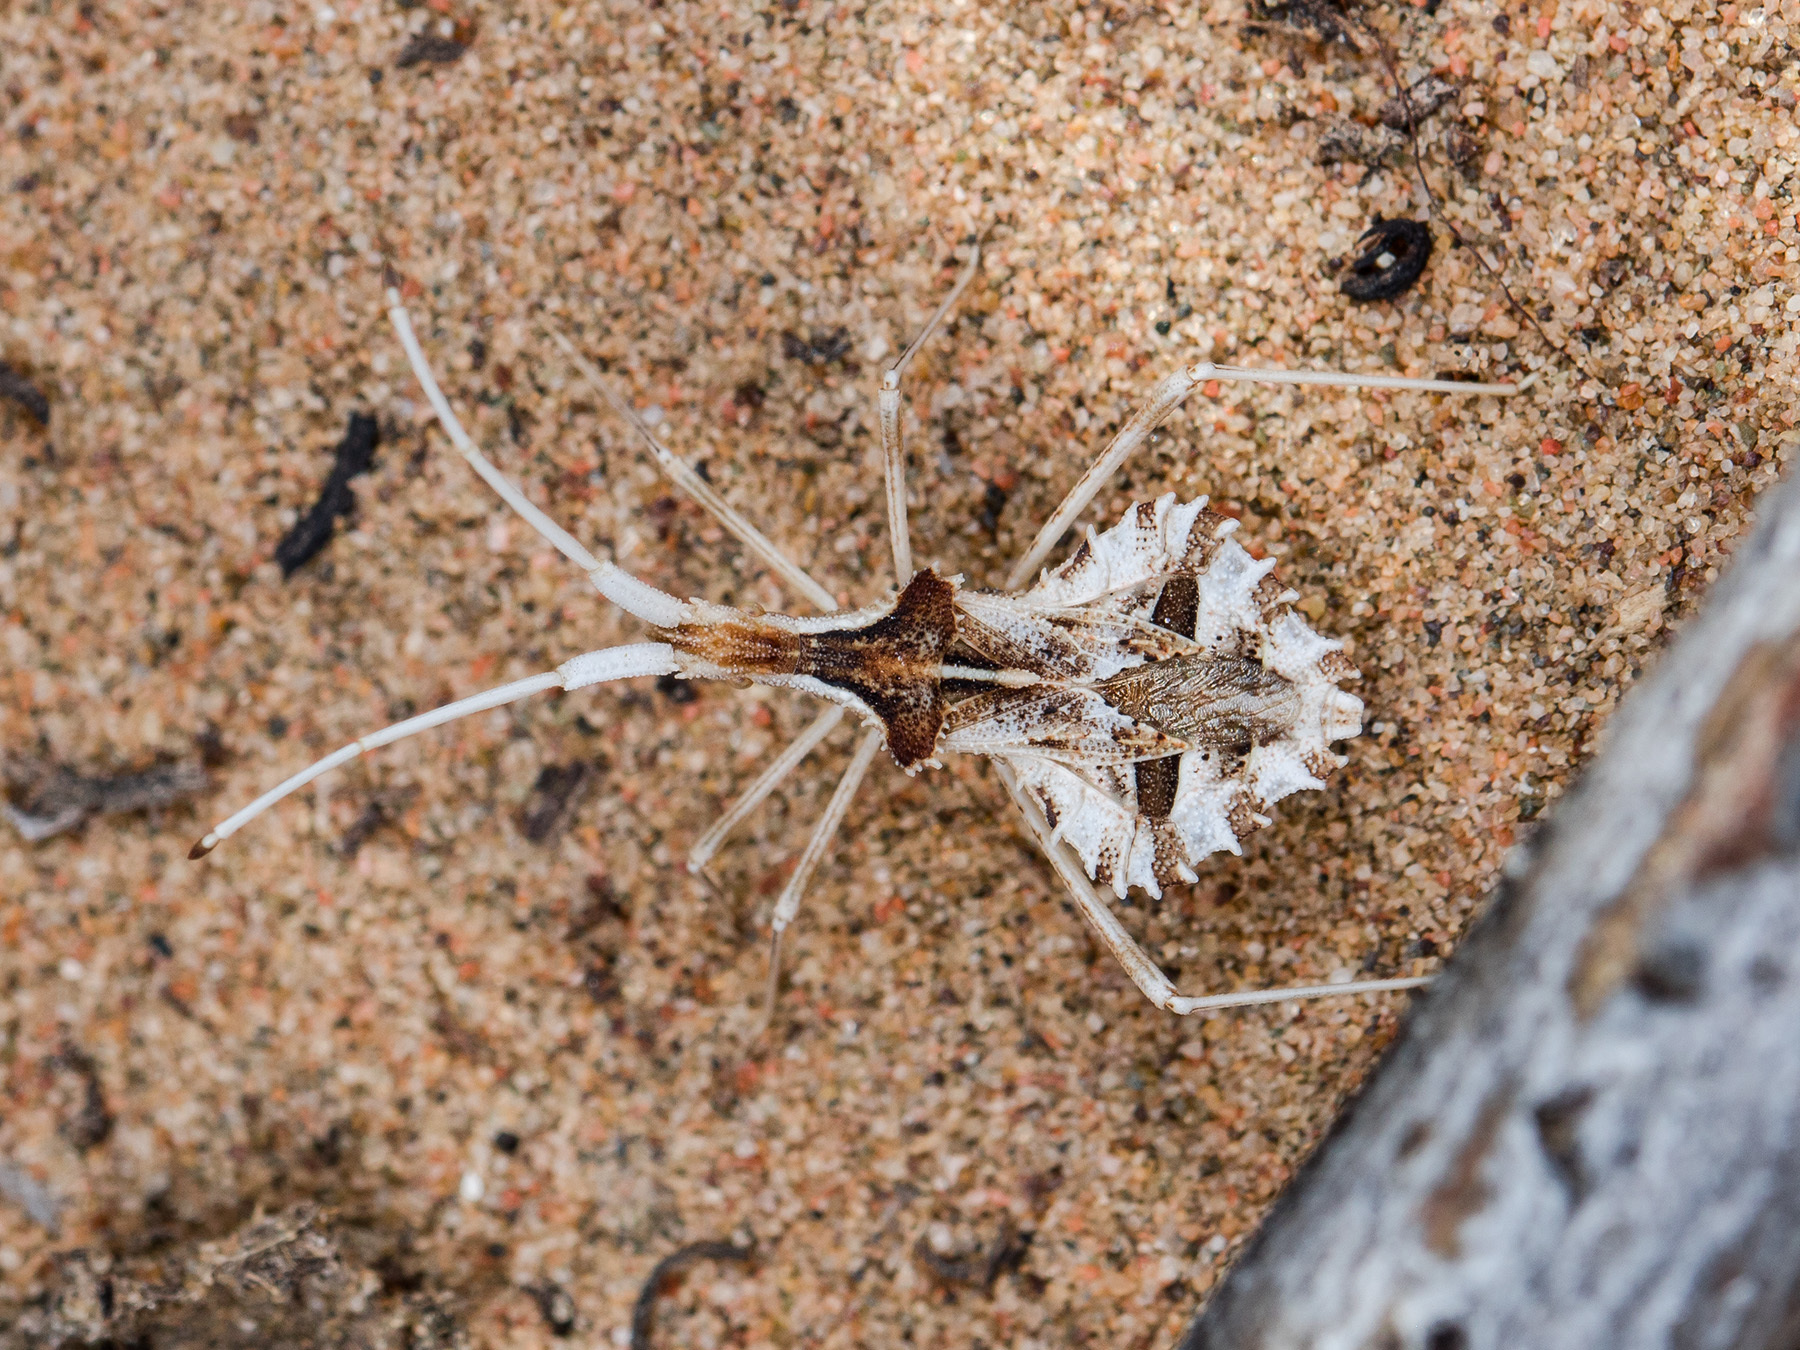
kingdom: Animalia
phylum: Arthropoda
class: Insecta
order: Hemiptera
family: Coreidae
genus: Cercinthus
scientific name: Cercinthus lehmannii
